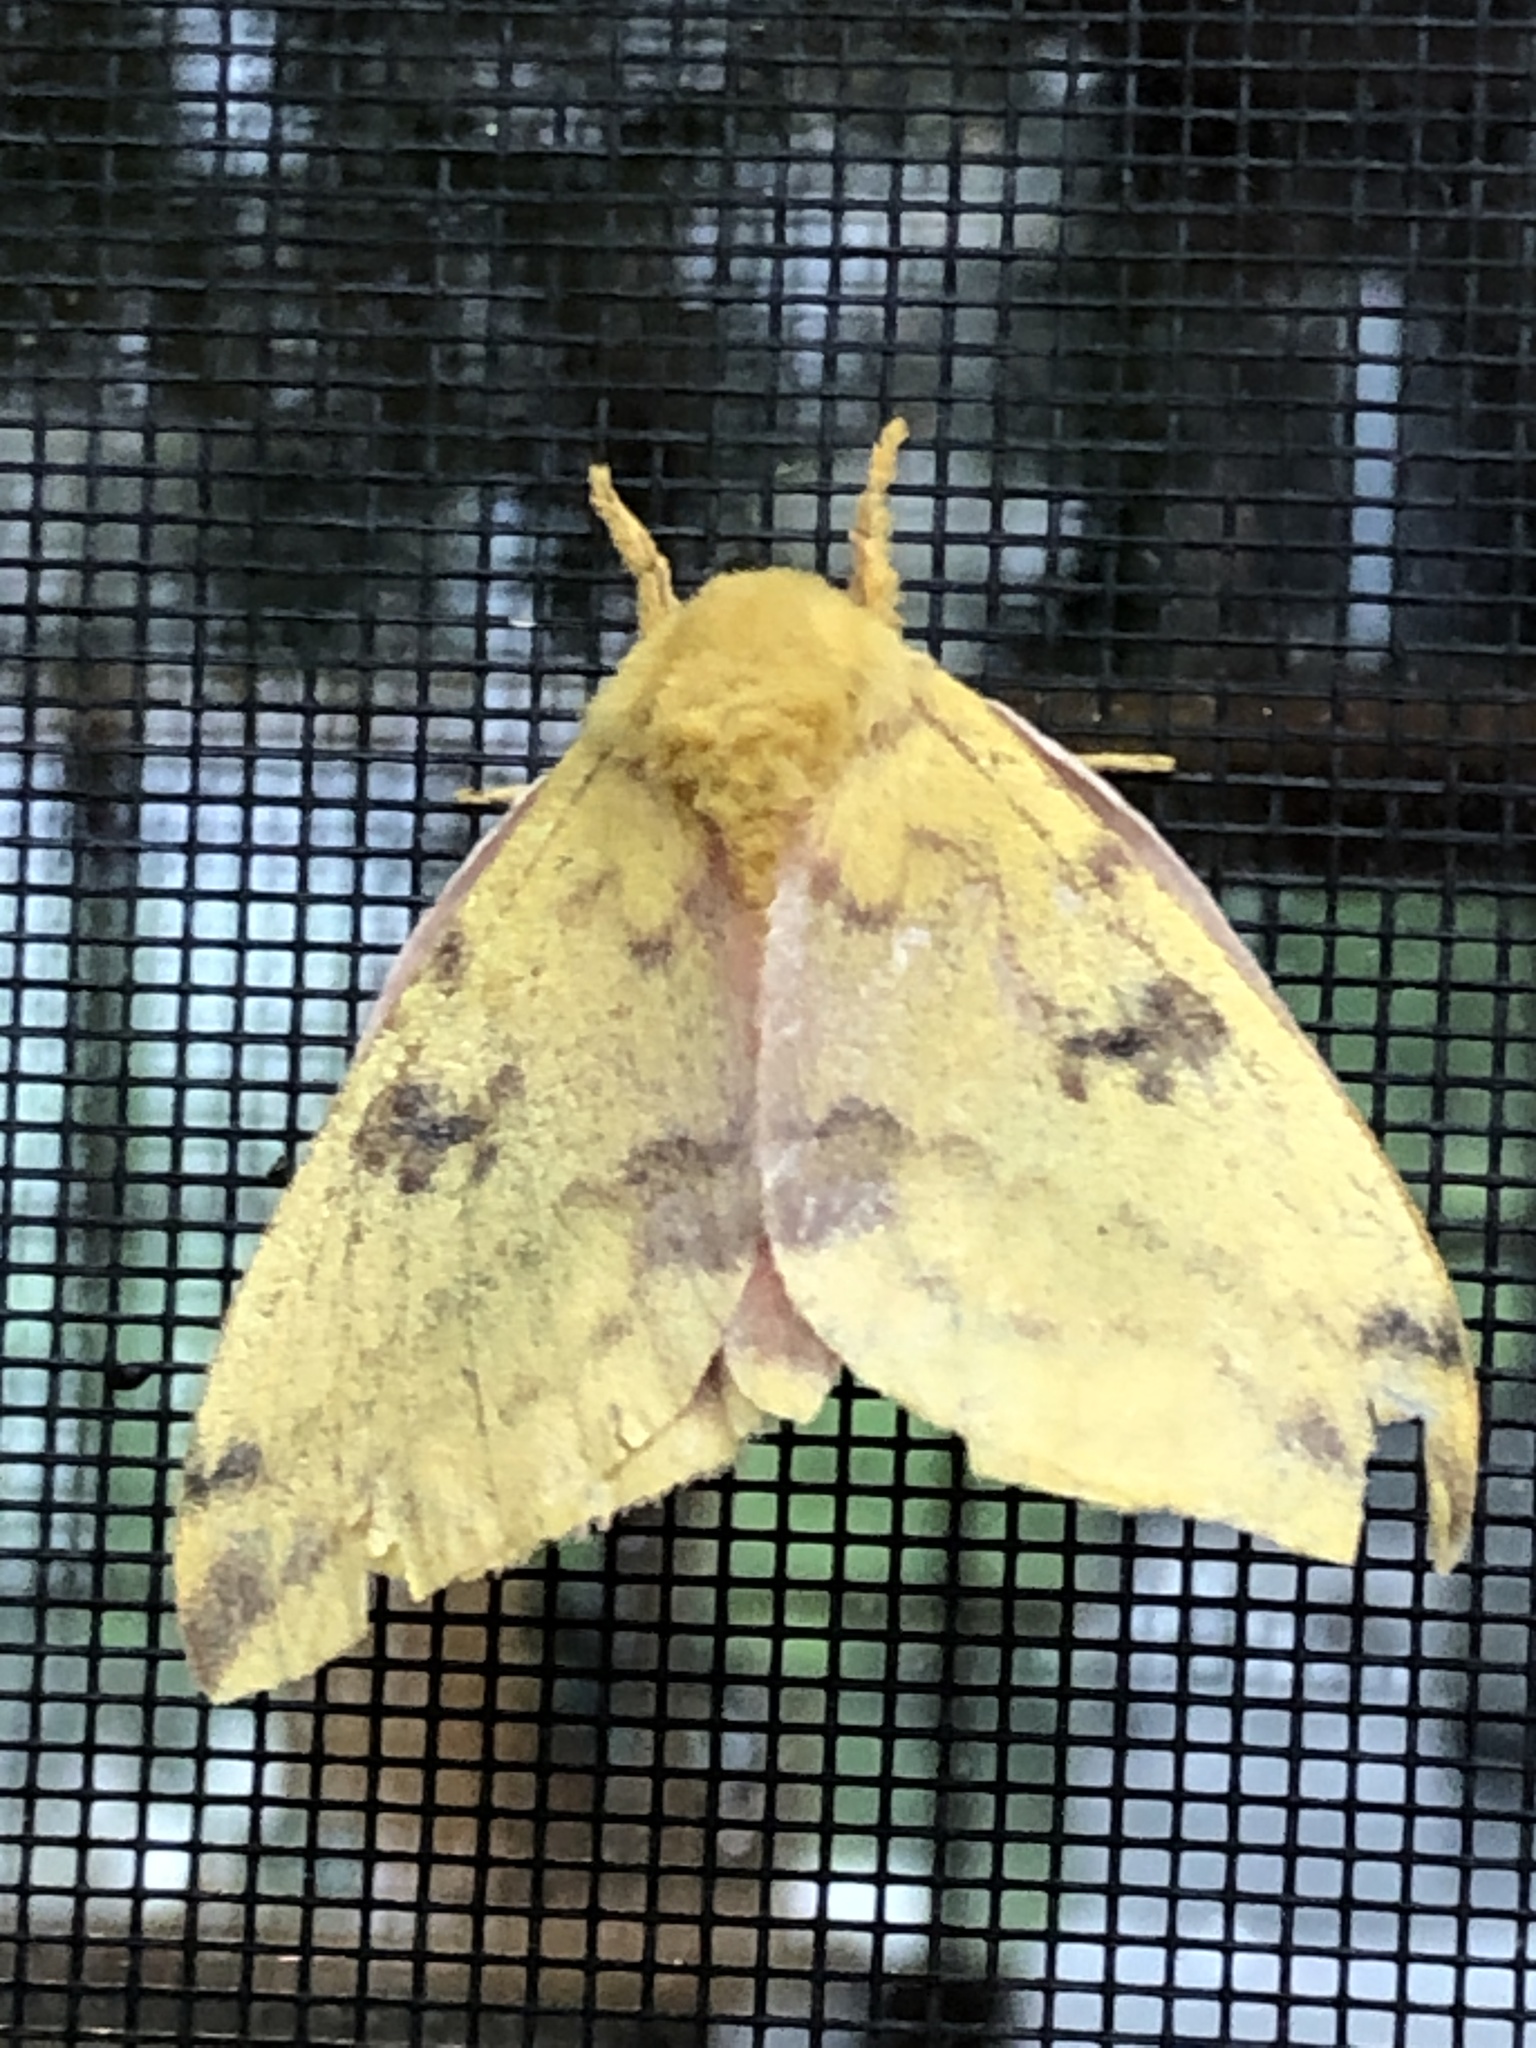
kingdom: Animalia
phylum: Arthropoda
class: Insecta
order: Lepidoptera
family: Saturniidae
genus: Automeris
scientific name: Automeris io
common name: Io moth
